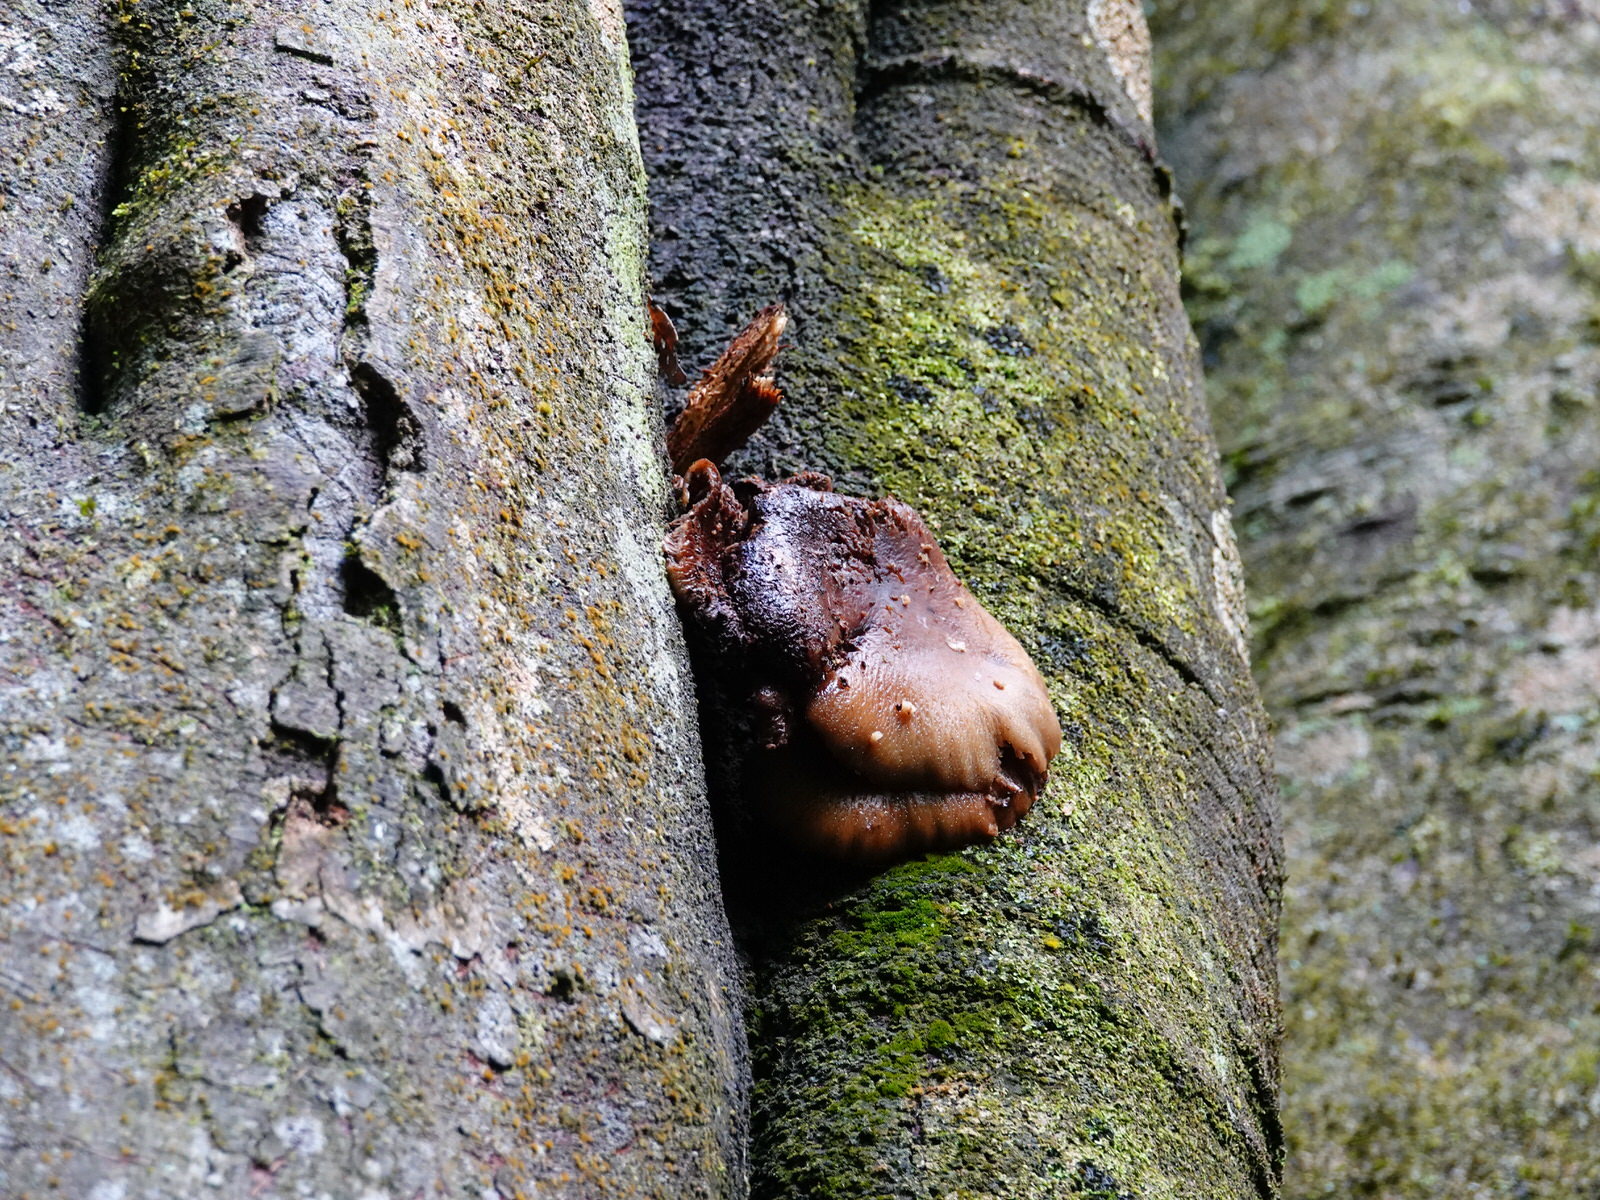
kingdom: Fungi
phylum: Basidiomycota
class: Agaricomycetes
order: Agaricales
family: Tubariaceae
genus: Cyclocybe
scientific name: Cyclocybe parasitica
